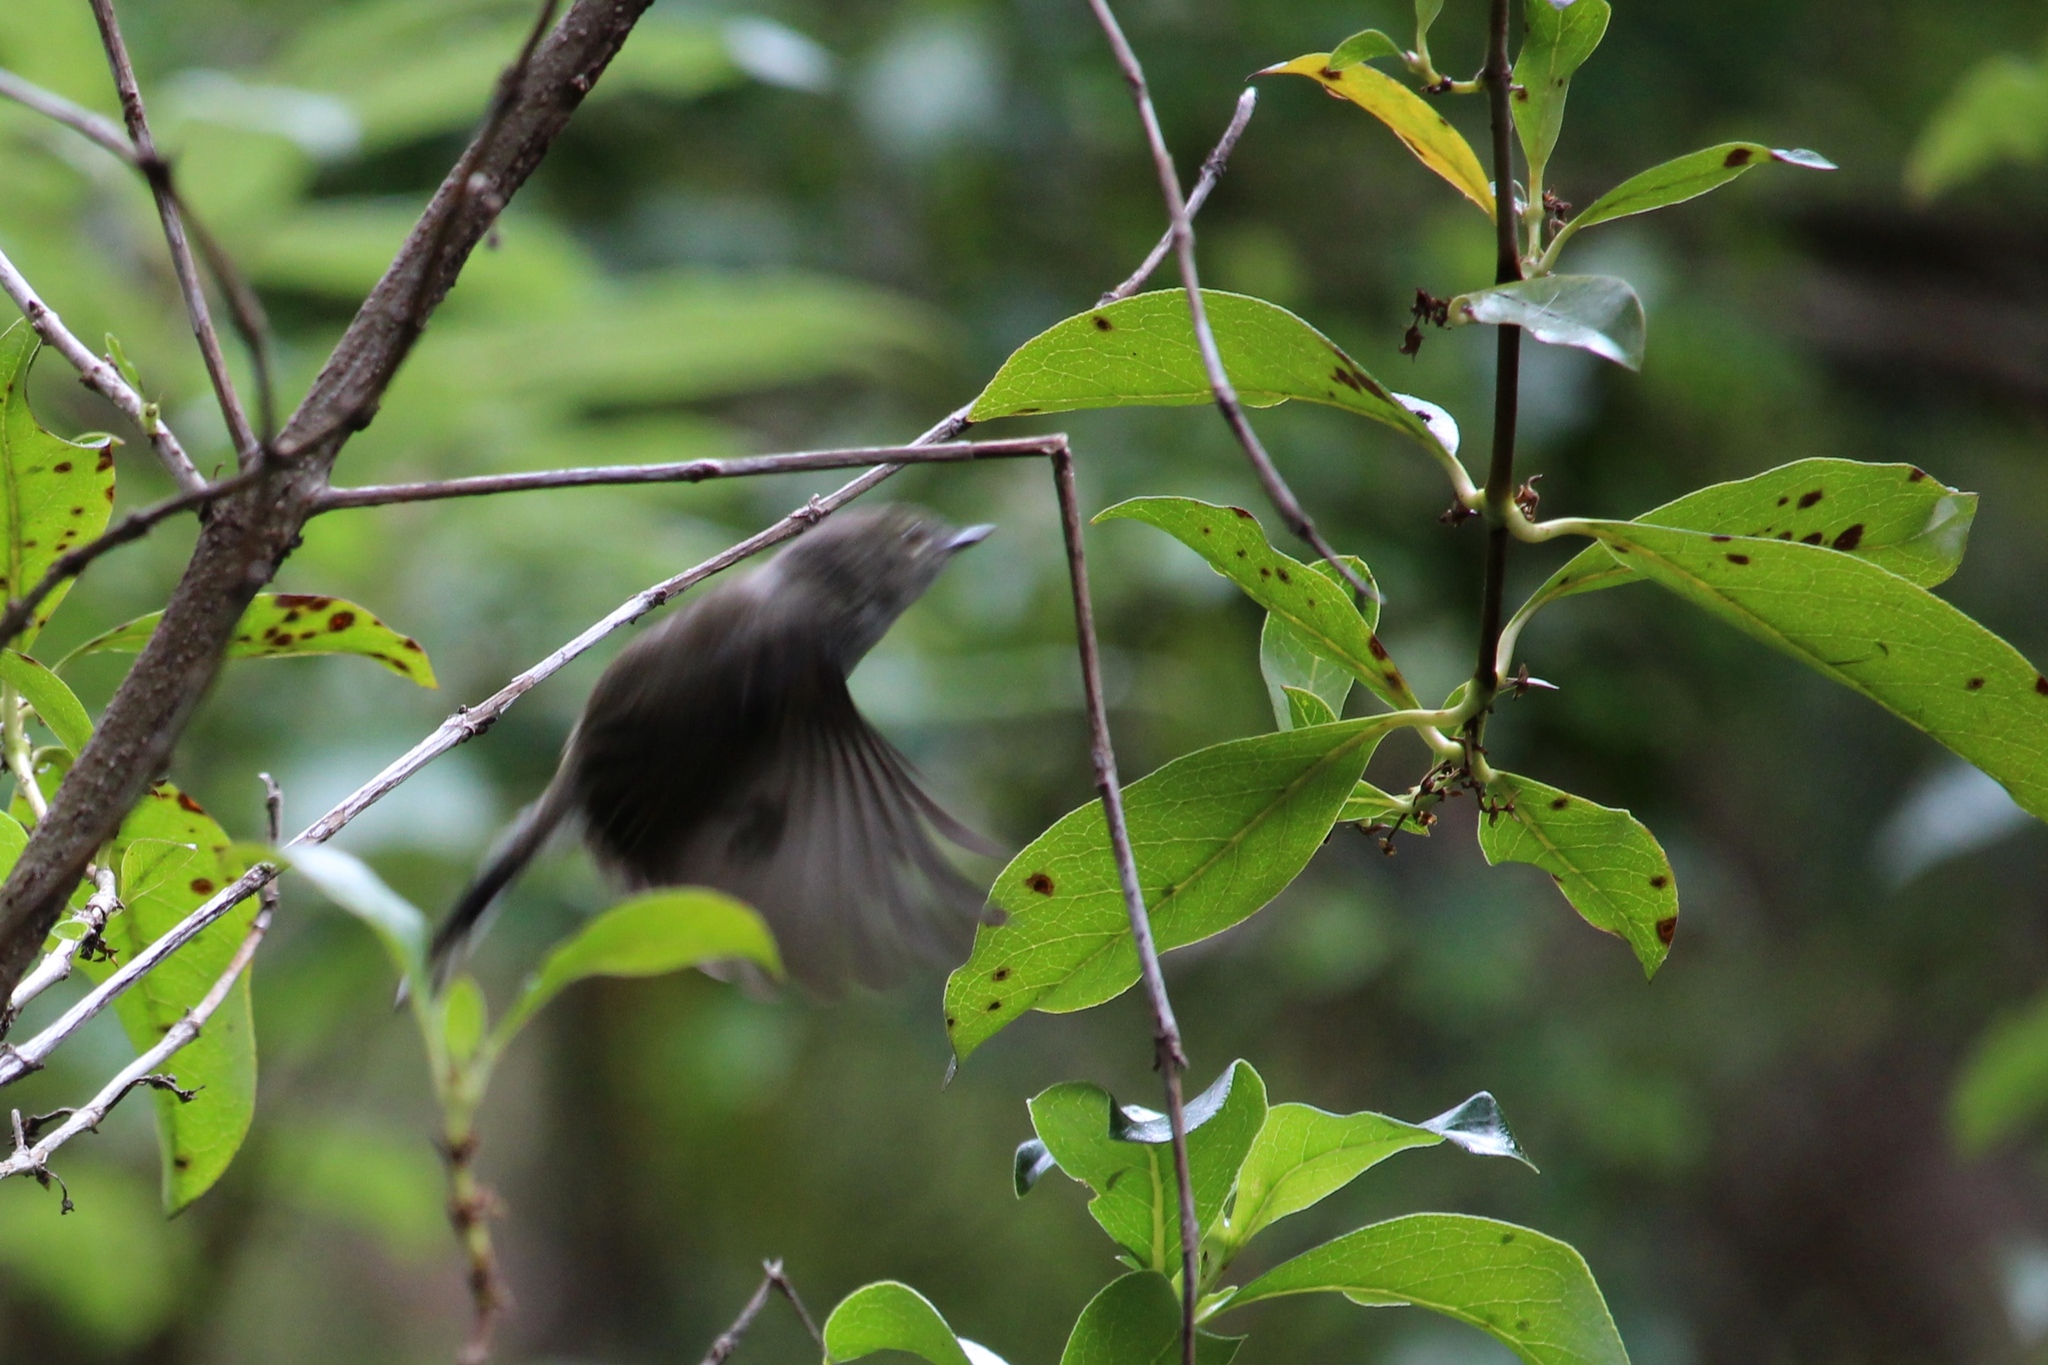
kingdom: Animalia
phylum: Chordata
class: Aves
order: Passeriformes
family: Acanthizidae
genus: Gerygone
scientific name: Gerygone igata
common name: Grey gerygone
